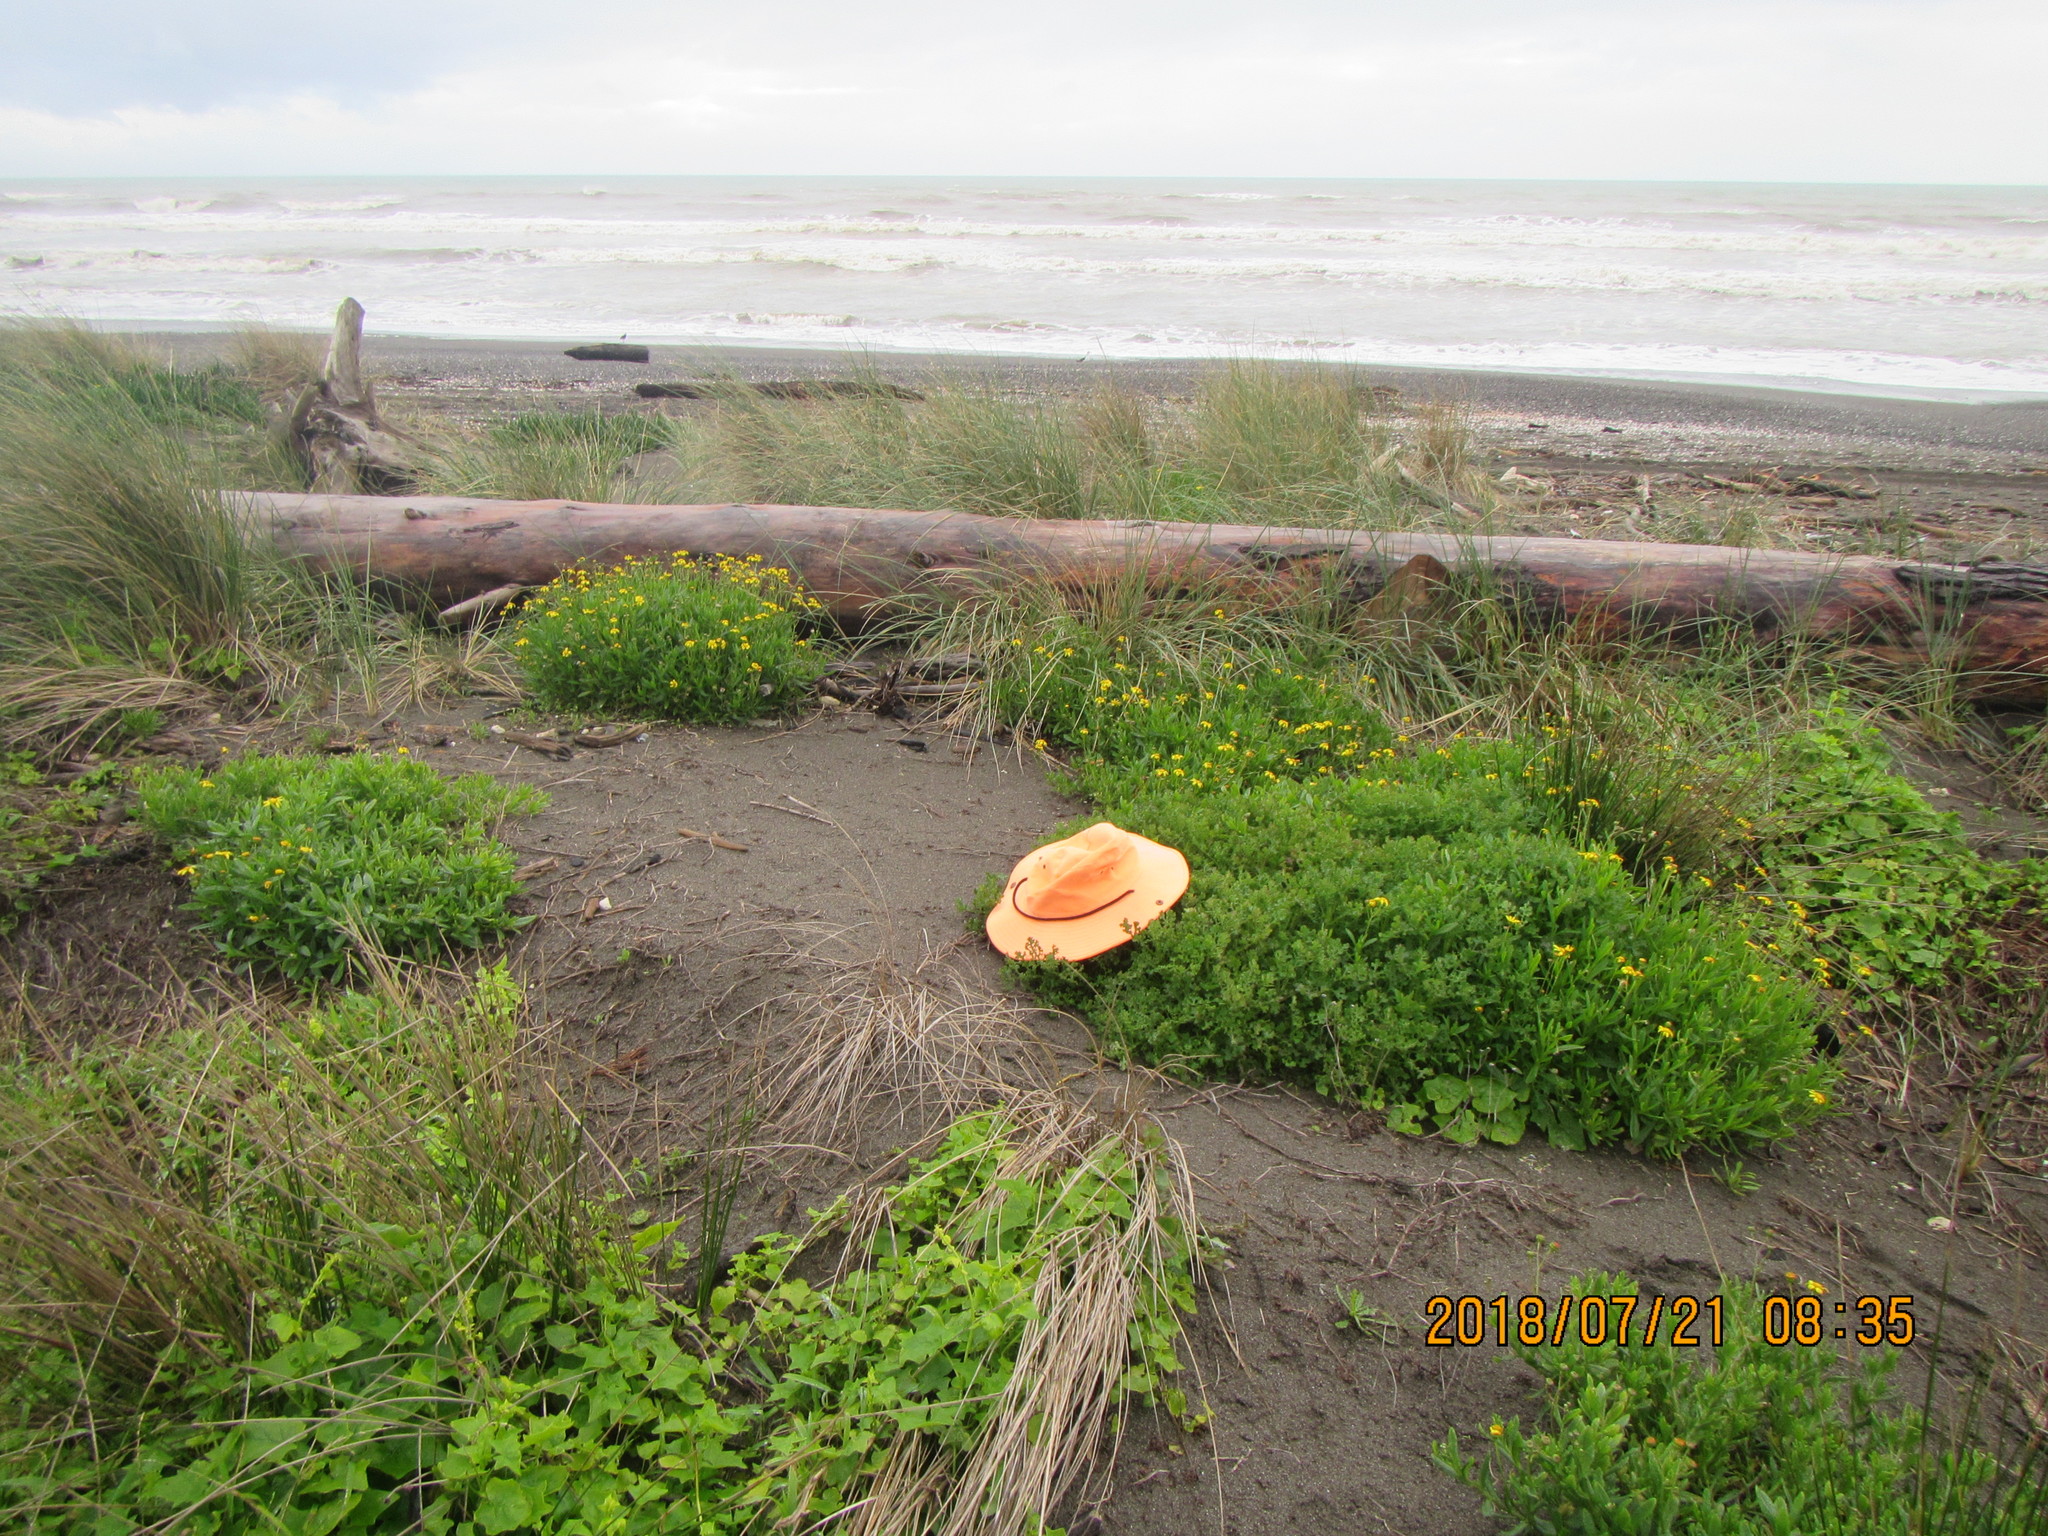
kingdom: Plantae
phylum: Tracheophyta
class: Magnoliopsida
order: Asterales
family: Asteraceae
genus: Senecio
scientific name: Senecio elegans
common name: Purple groundsel
